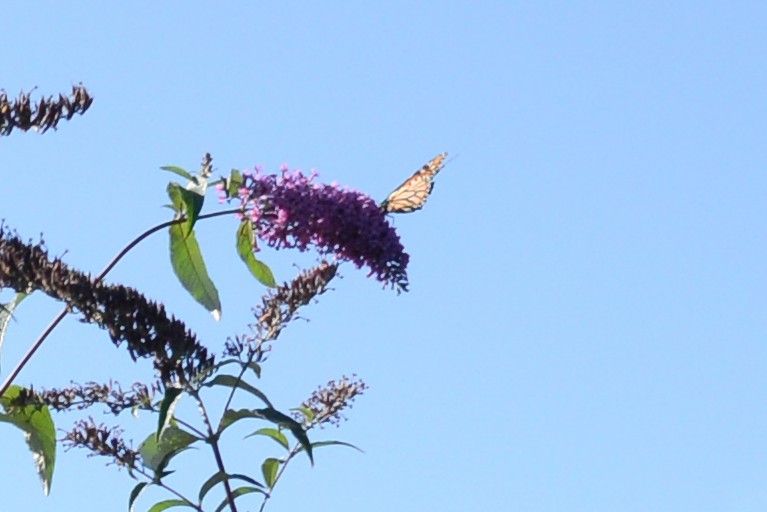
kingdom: Animalia
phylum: Arthropoda
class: Insecta
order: Lepidoptera
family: Nymphalidae
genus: Danaus
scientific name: Danaus plexippus
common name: Monarch
